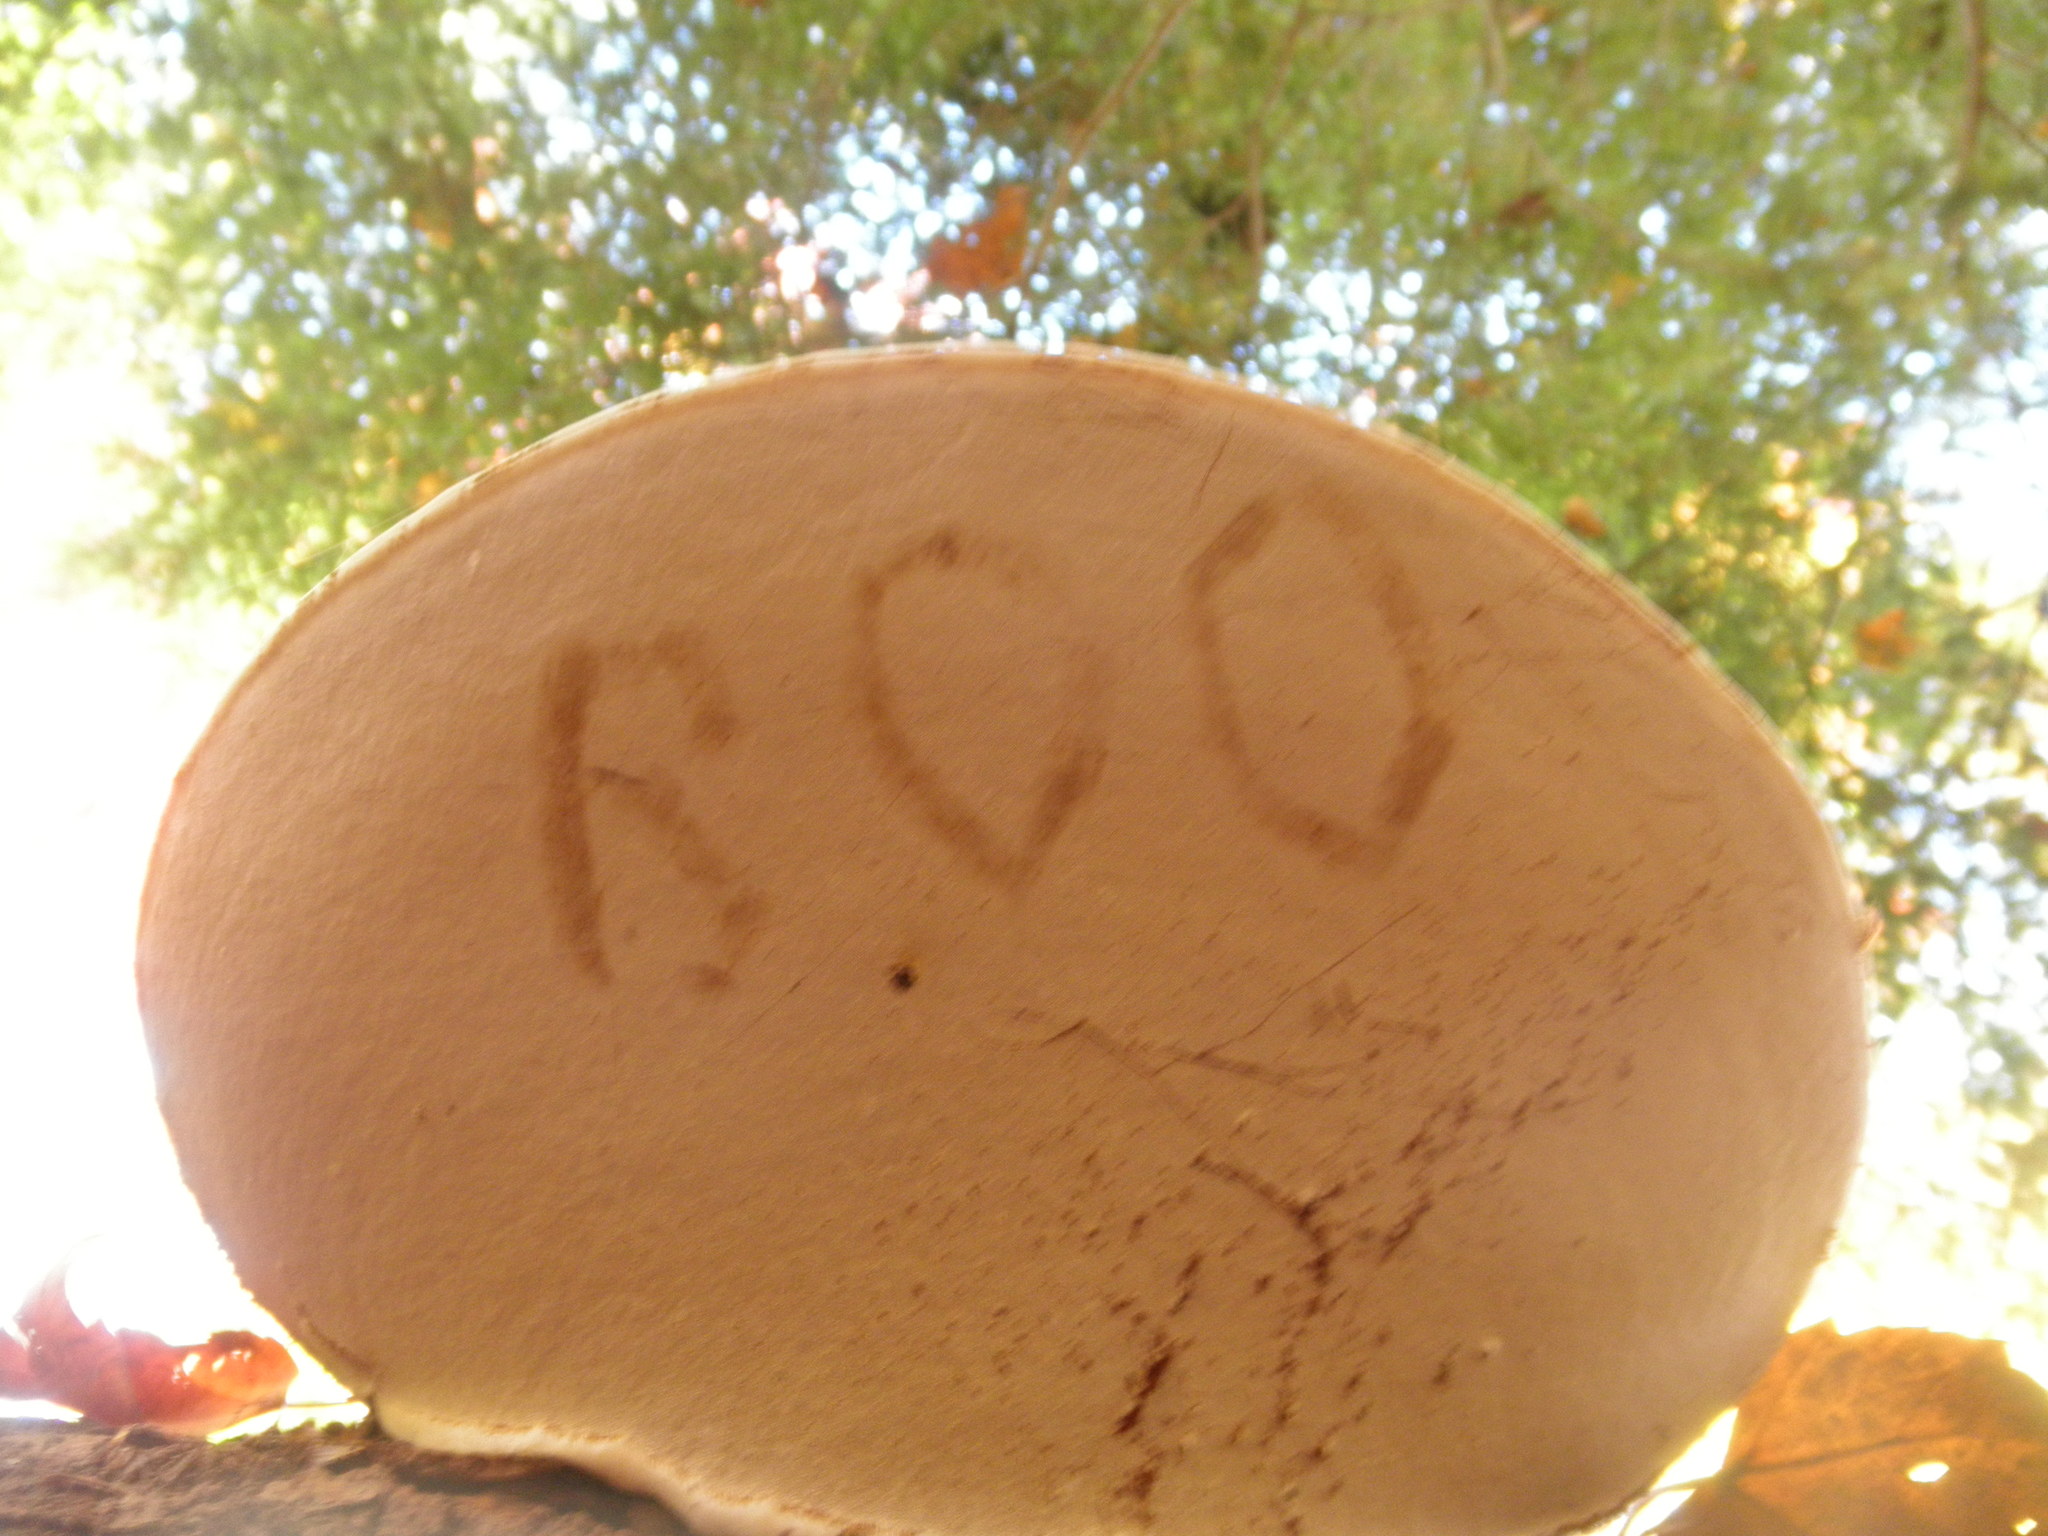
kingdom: Fungi
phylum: Basidiomycota
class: Agaricomycetes
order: Polyporales
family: Polyporaceae
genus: Ganoderma
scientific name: Ganoderma applanatum
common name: Artist's bracket
